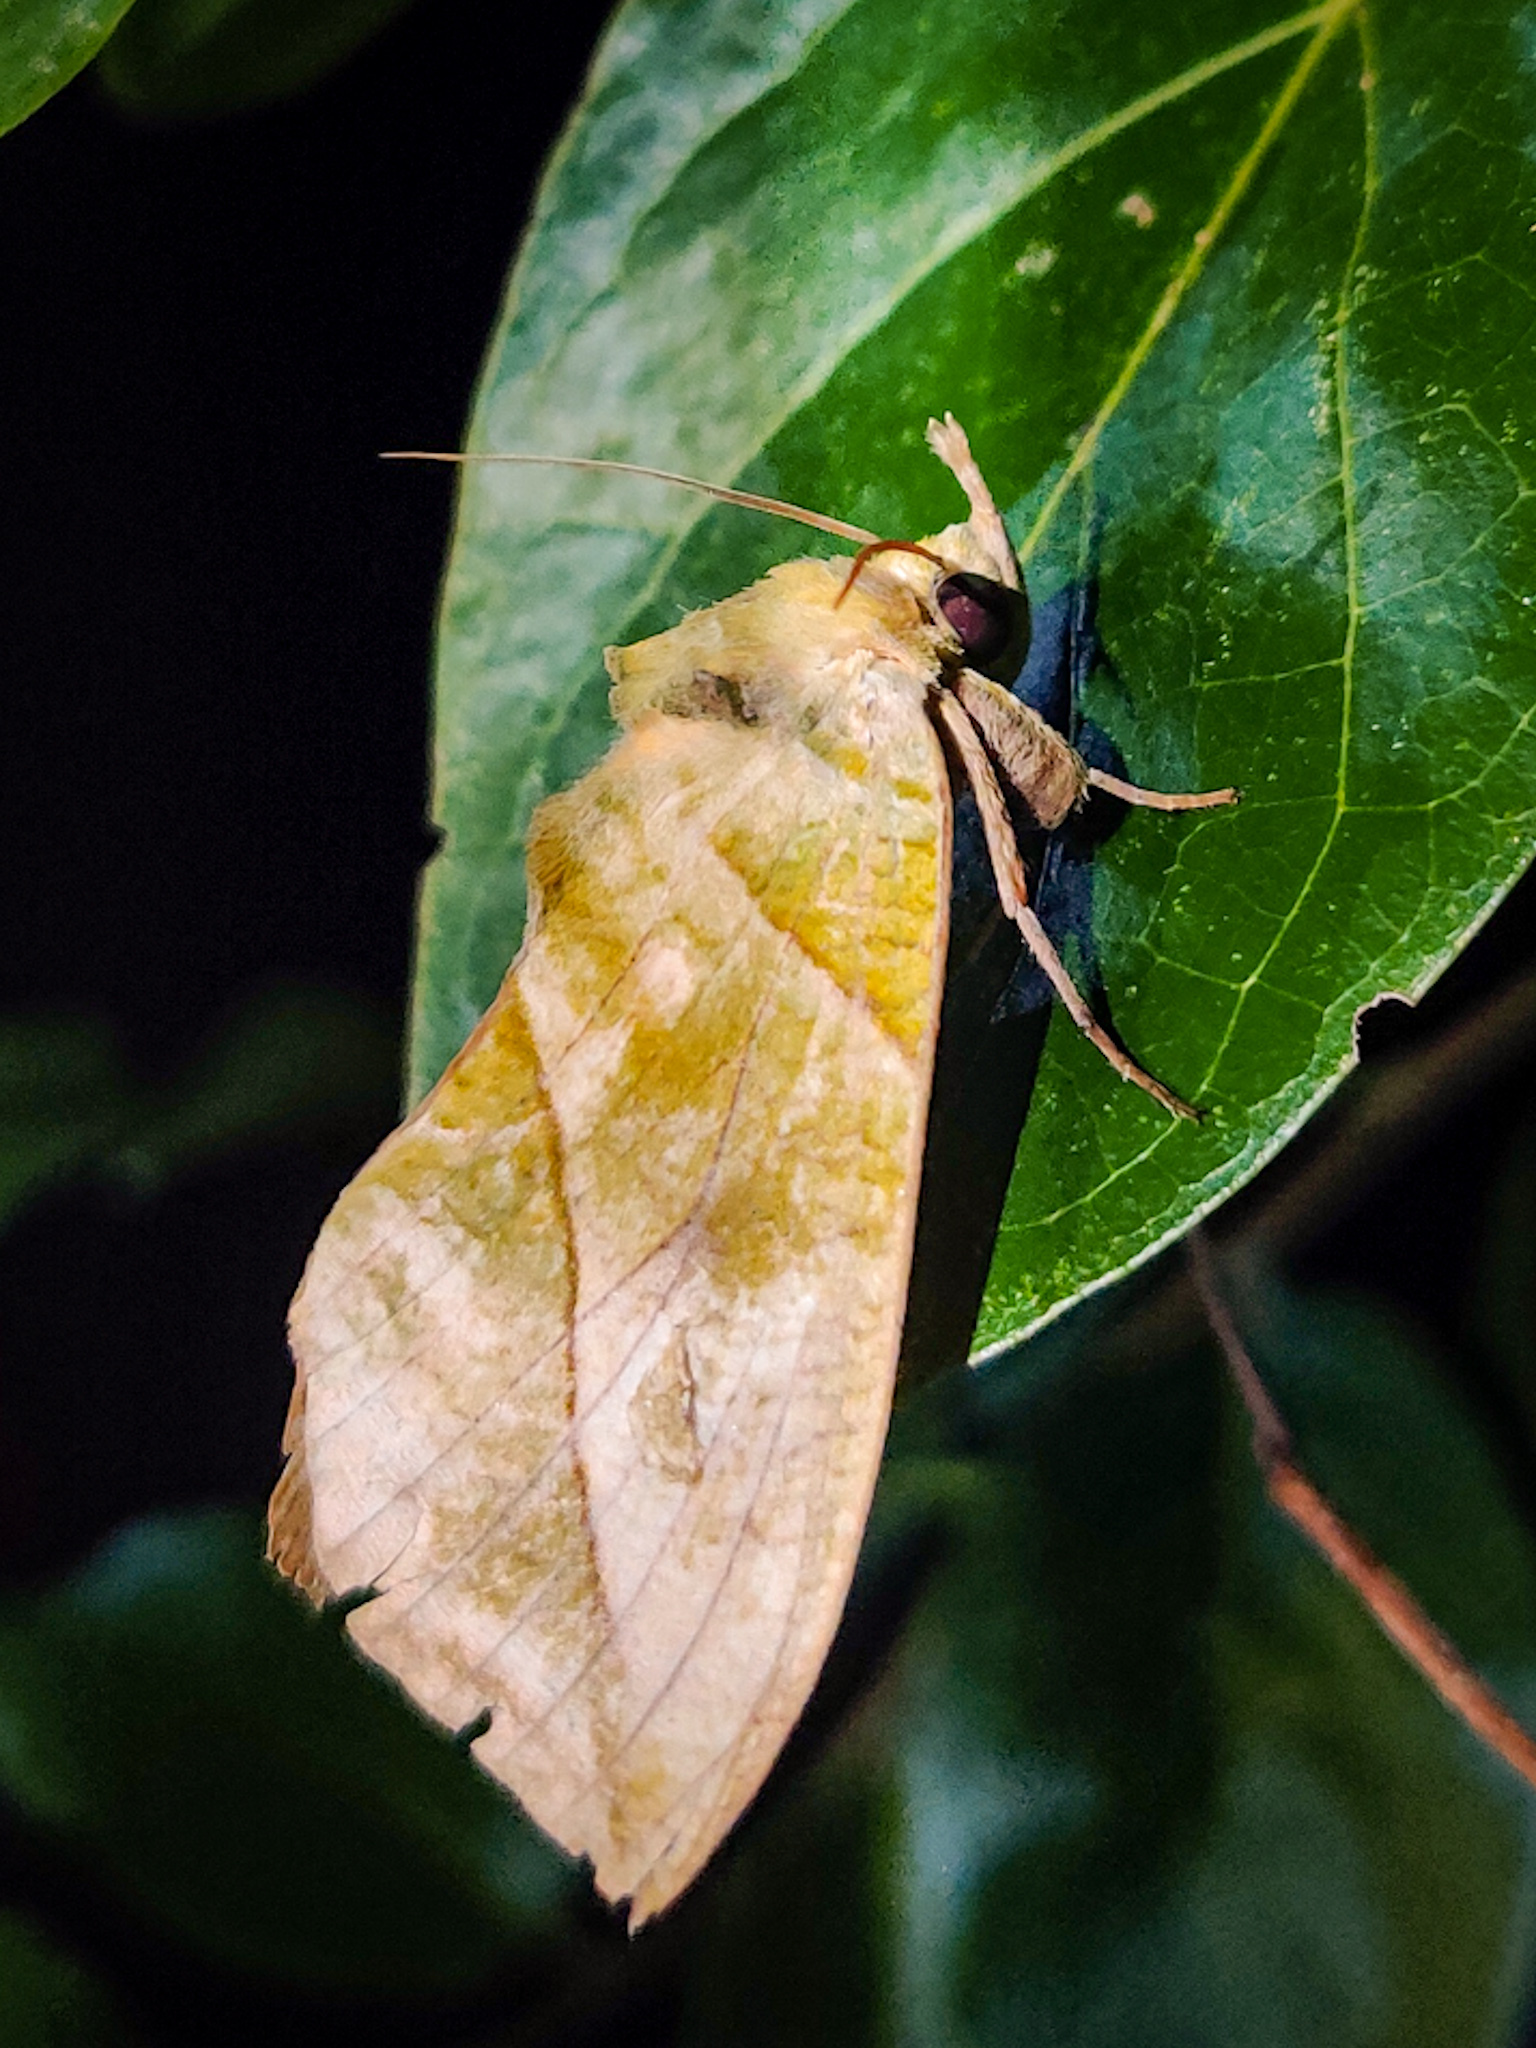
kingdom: Animalia
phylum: Arthropoda
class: Insecta
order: Lepidoptera
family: Erebidae
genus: Eudocima
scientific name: Eudocima hypermnestra
